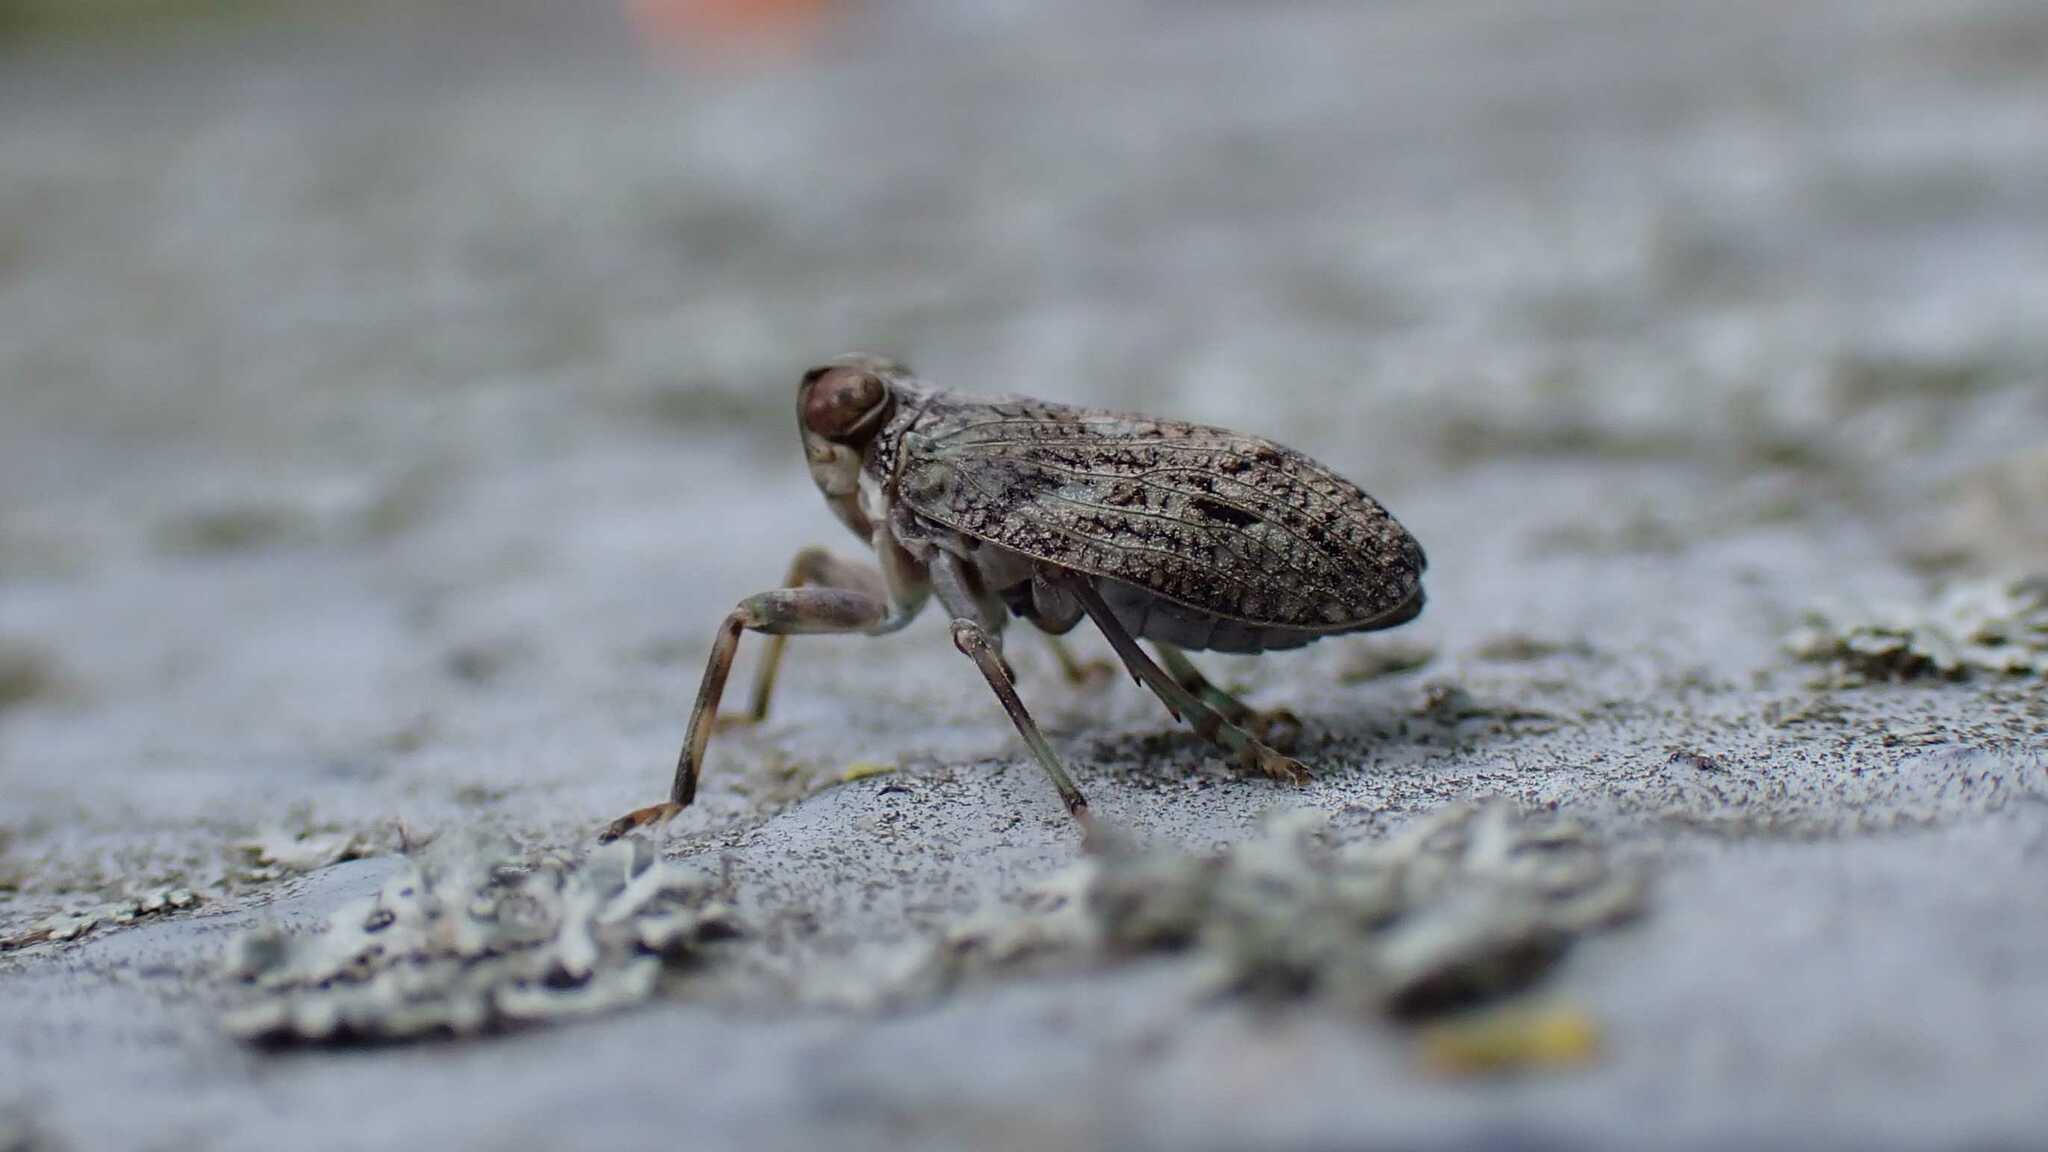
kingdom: Animalia
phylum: Arthropoda
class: Insecta
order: Hemiptera
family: Issidae
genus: Issus
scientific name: Issus coleoptratus
